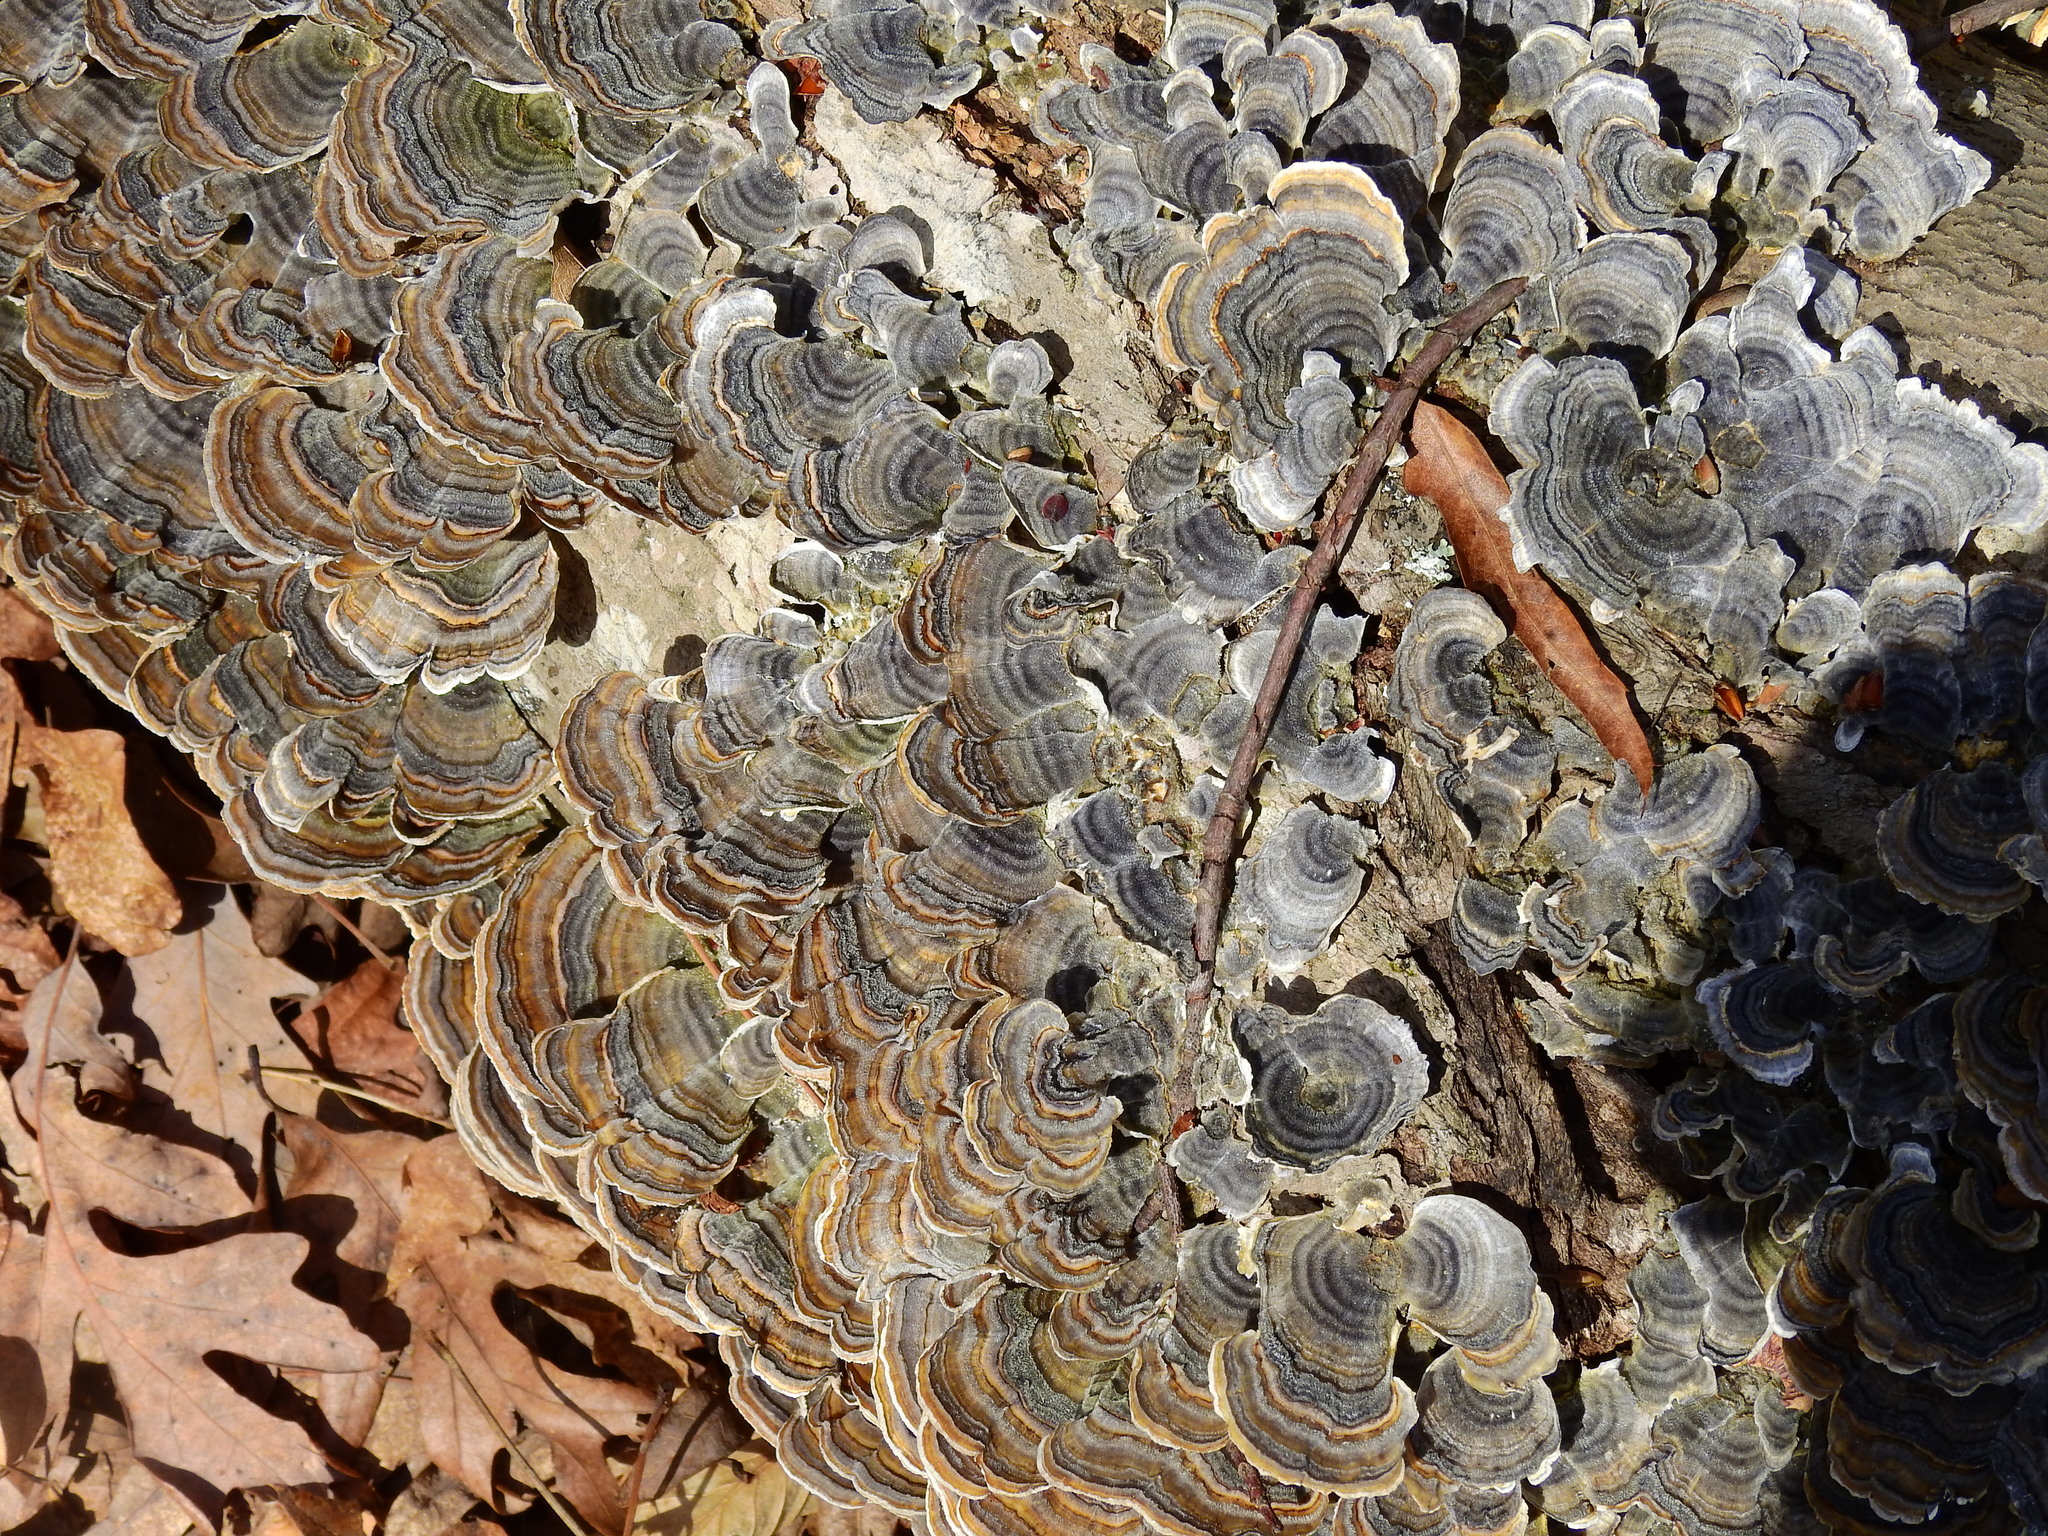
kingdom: Fungi
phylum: Basidiomycota
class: Agaricomycetes
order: Polyporales
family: Polyporaceae
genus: Trametes
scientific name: Trametes versicolor
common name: Turkeytail
